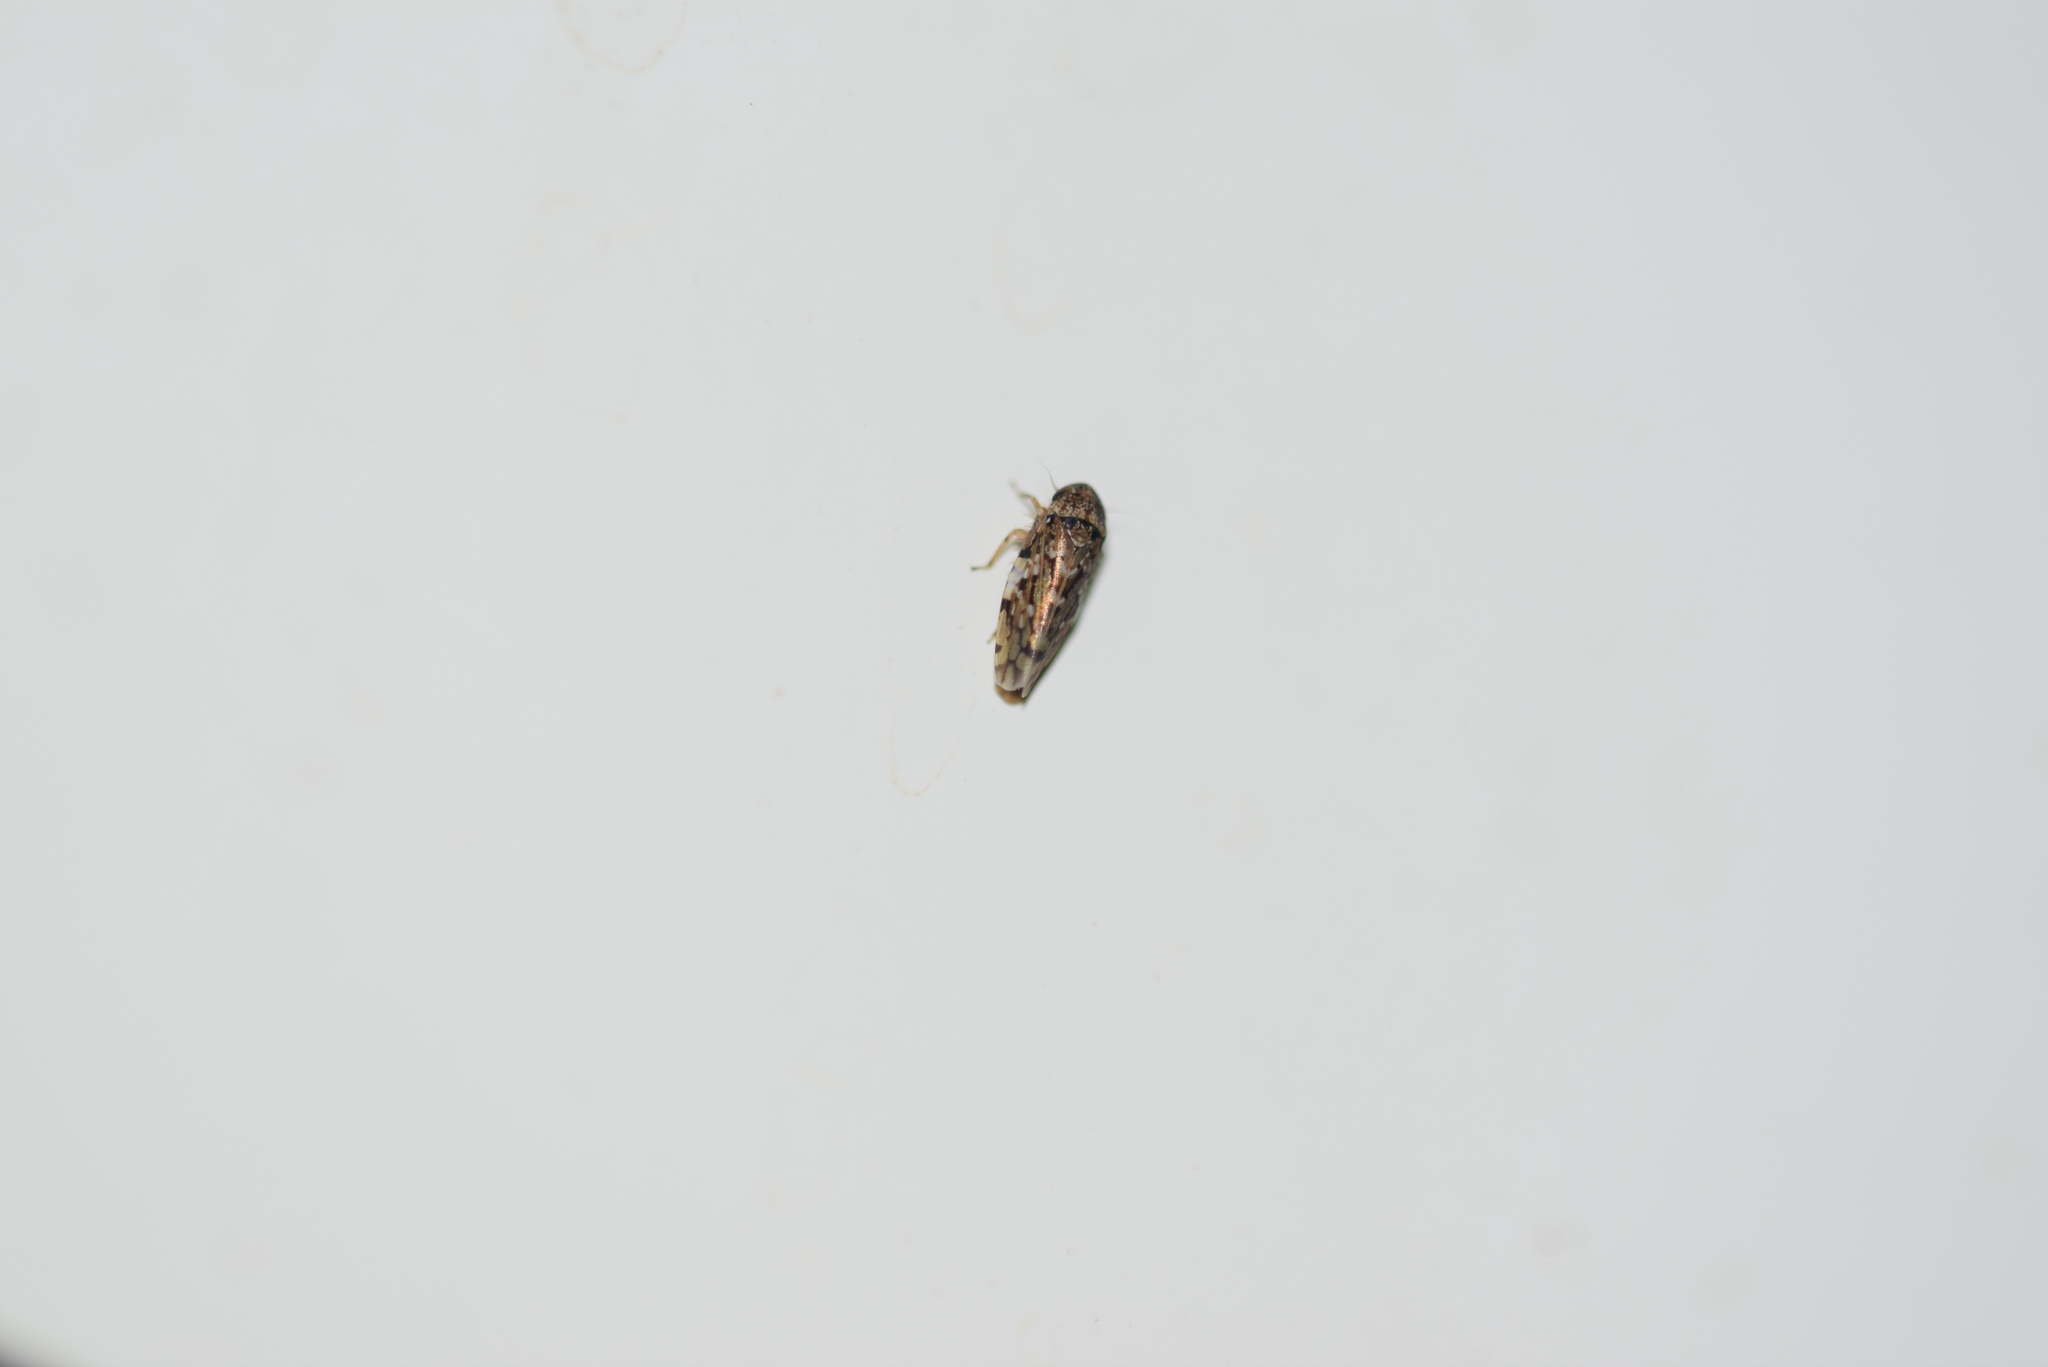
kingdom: Animalia
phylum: Arthropoda
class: Insecta
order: Hemiptera
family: Cicadellidae
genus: Xestocephalus
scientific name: Xestocephalus tessellatus
